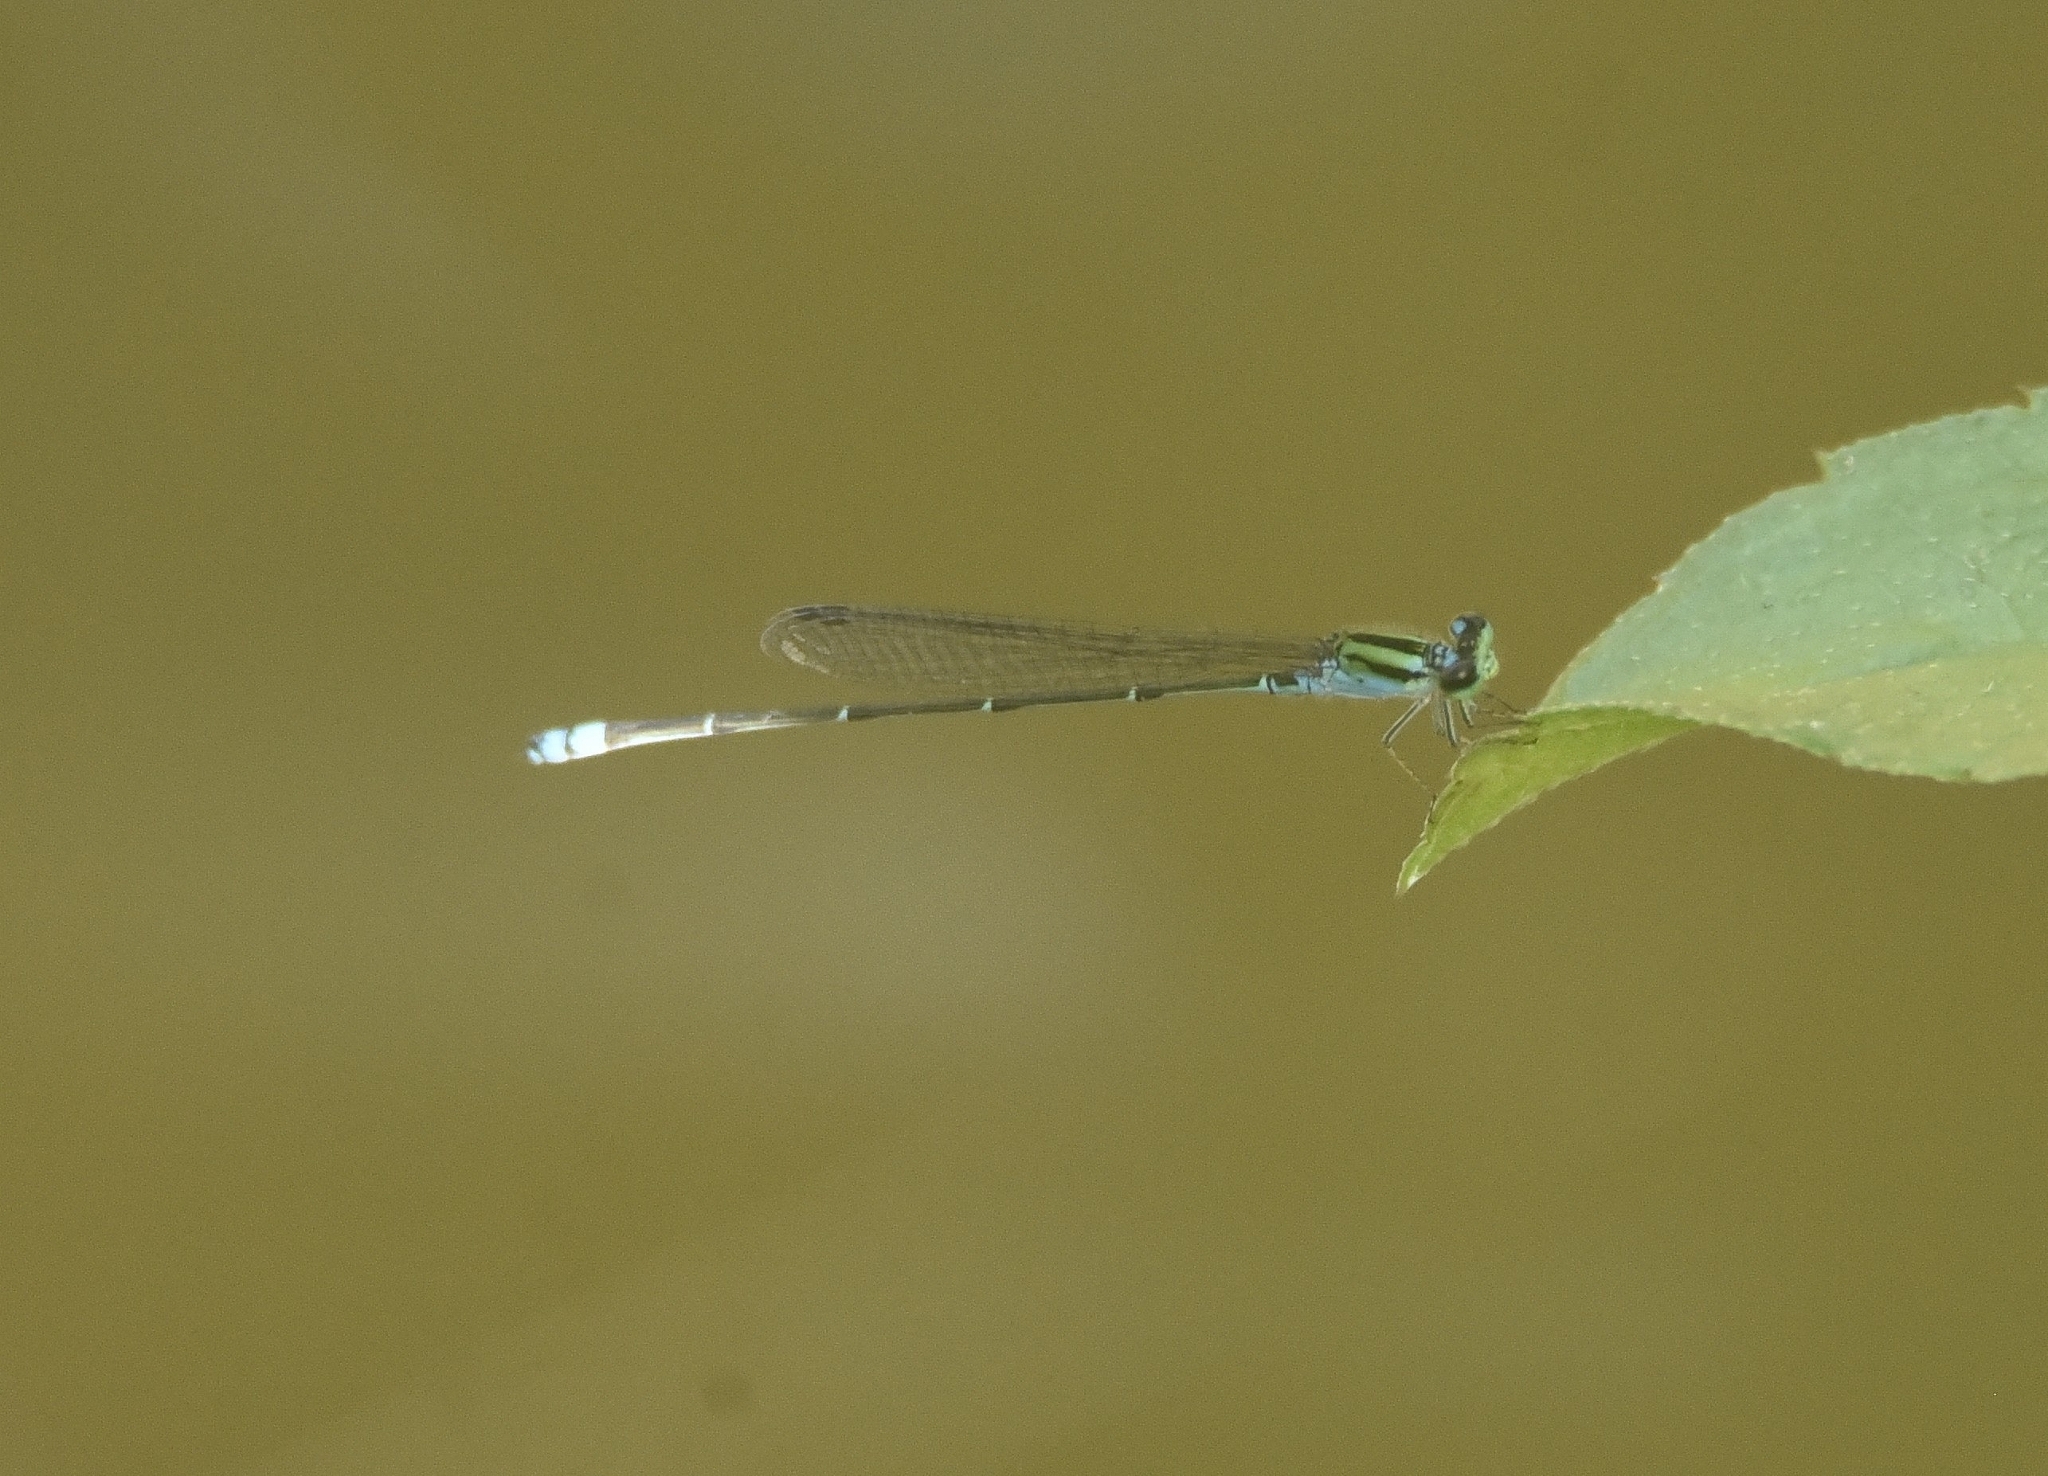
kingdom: Animalia
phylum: Arthropoda
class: Insecta
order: Odonata
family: Coenagrionidae
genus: Pseudagrion
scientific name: Pseudagrion indicum
